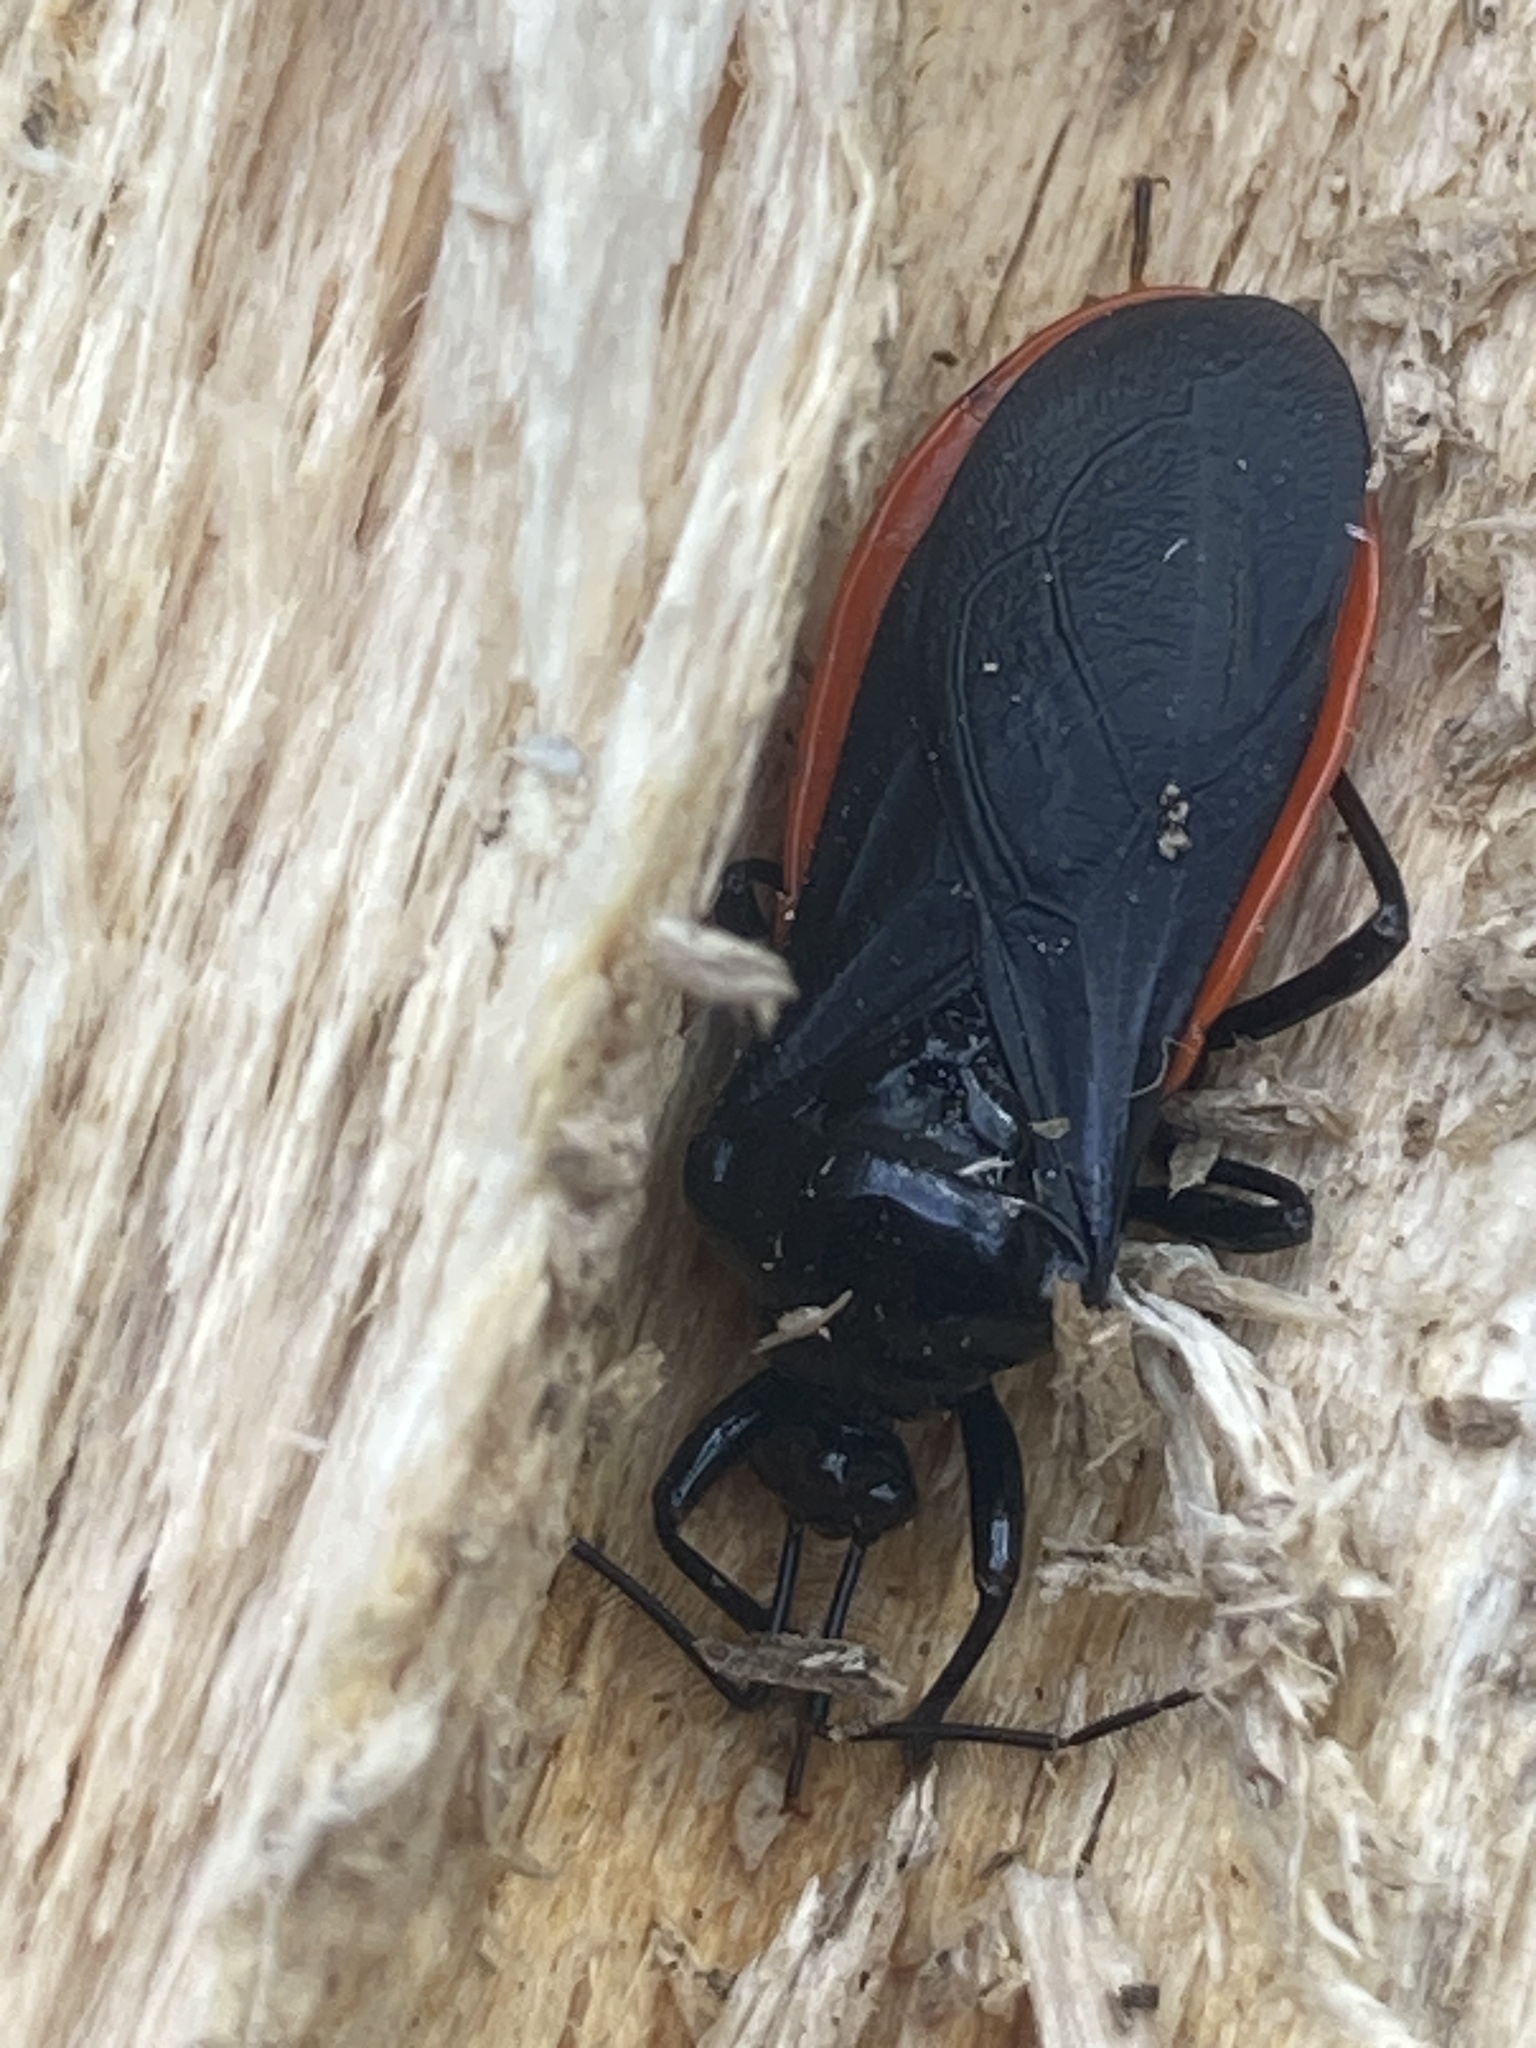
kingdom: Animalia
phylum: Arthropoda
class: Insecta
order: Hemiptera
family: Reduviidae
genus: Lyramna
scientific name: Lyramna vigil
